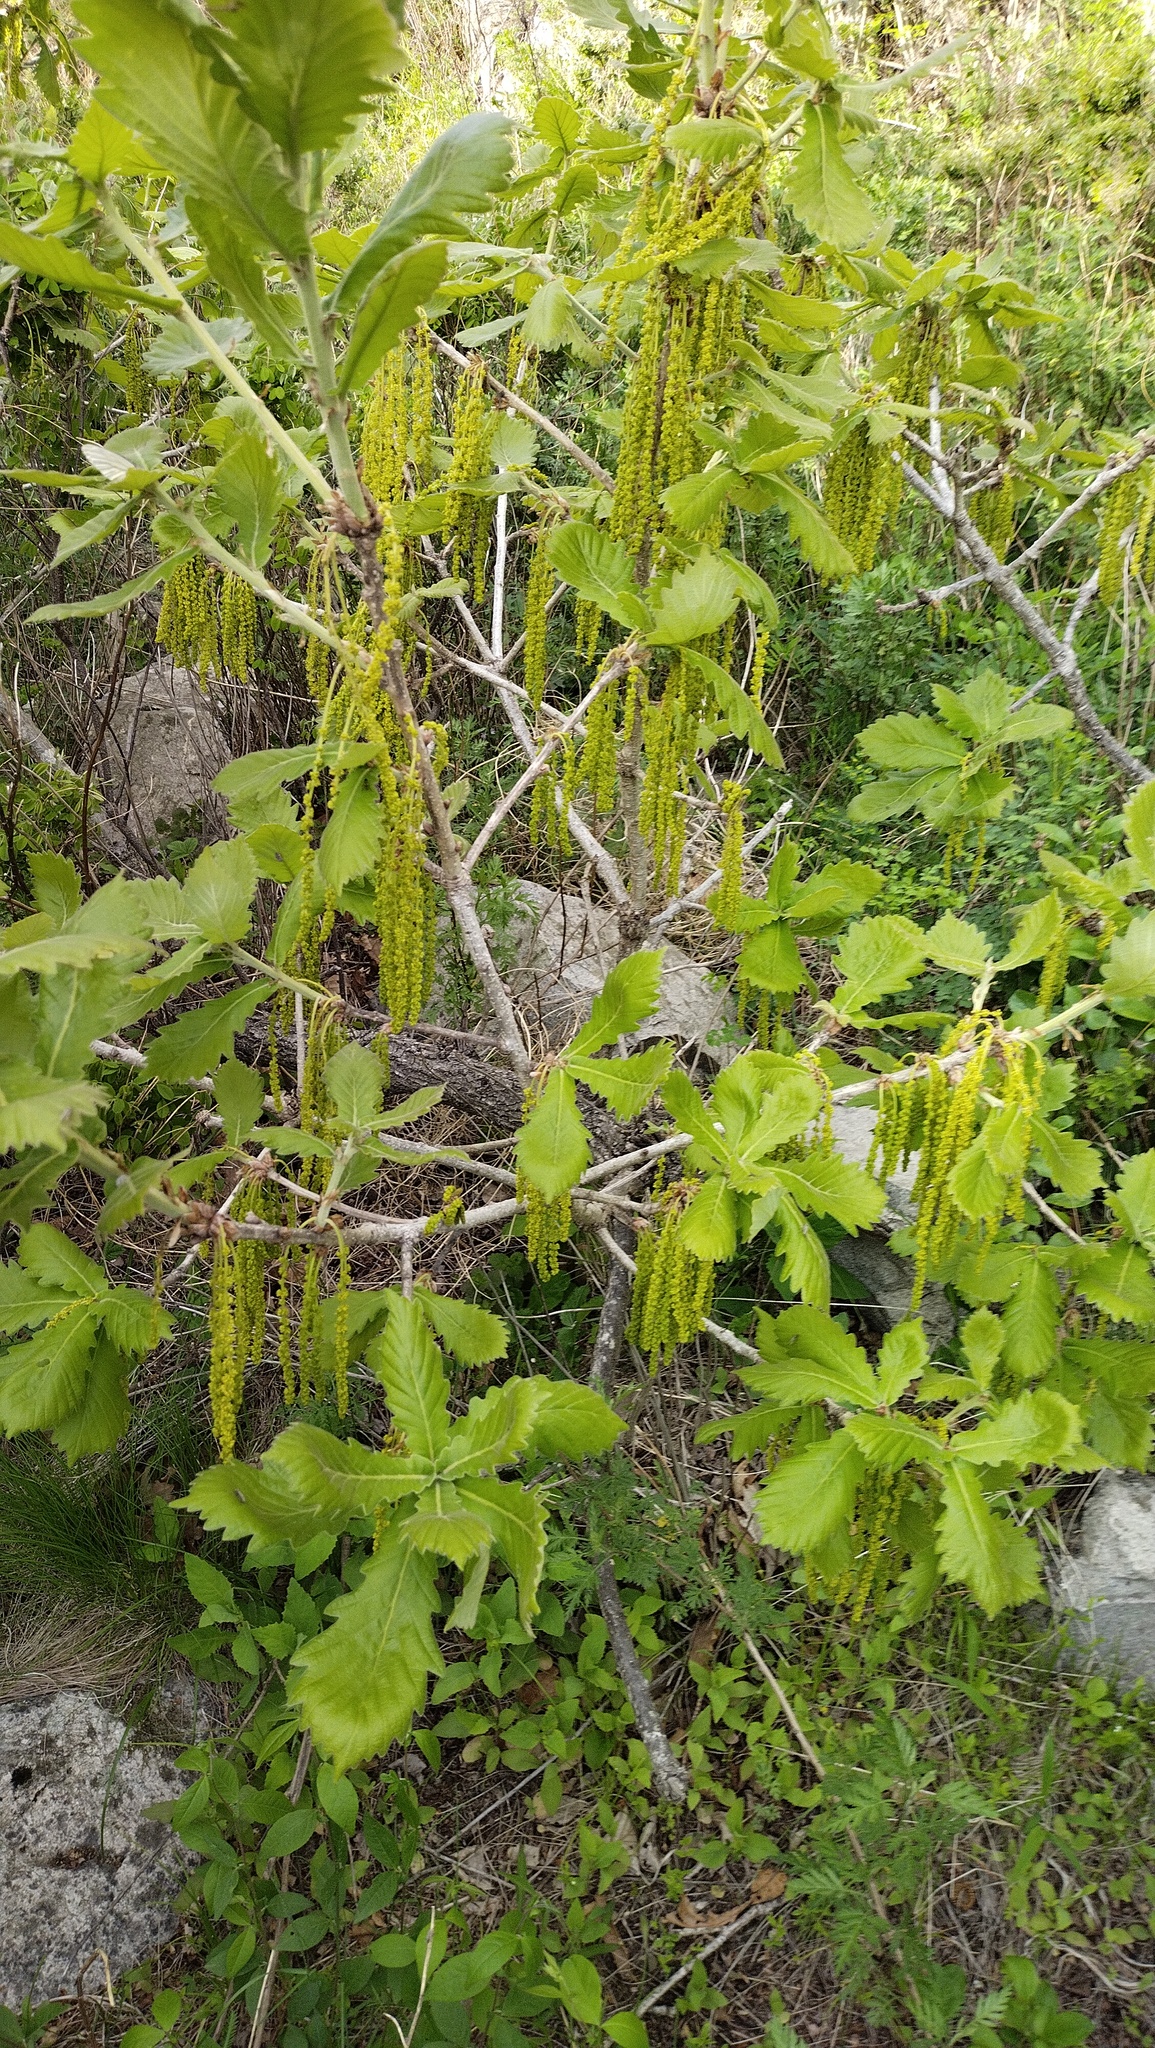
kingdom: Plantae
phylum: Tracheophyta
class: Magnoliopsida
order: Fagales
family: Fagaceae
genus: Quercus
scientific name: Quercus dentata
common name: Daimyo oak
